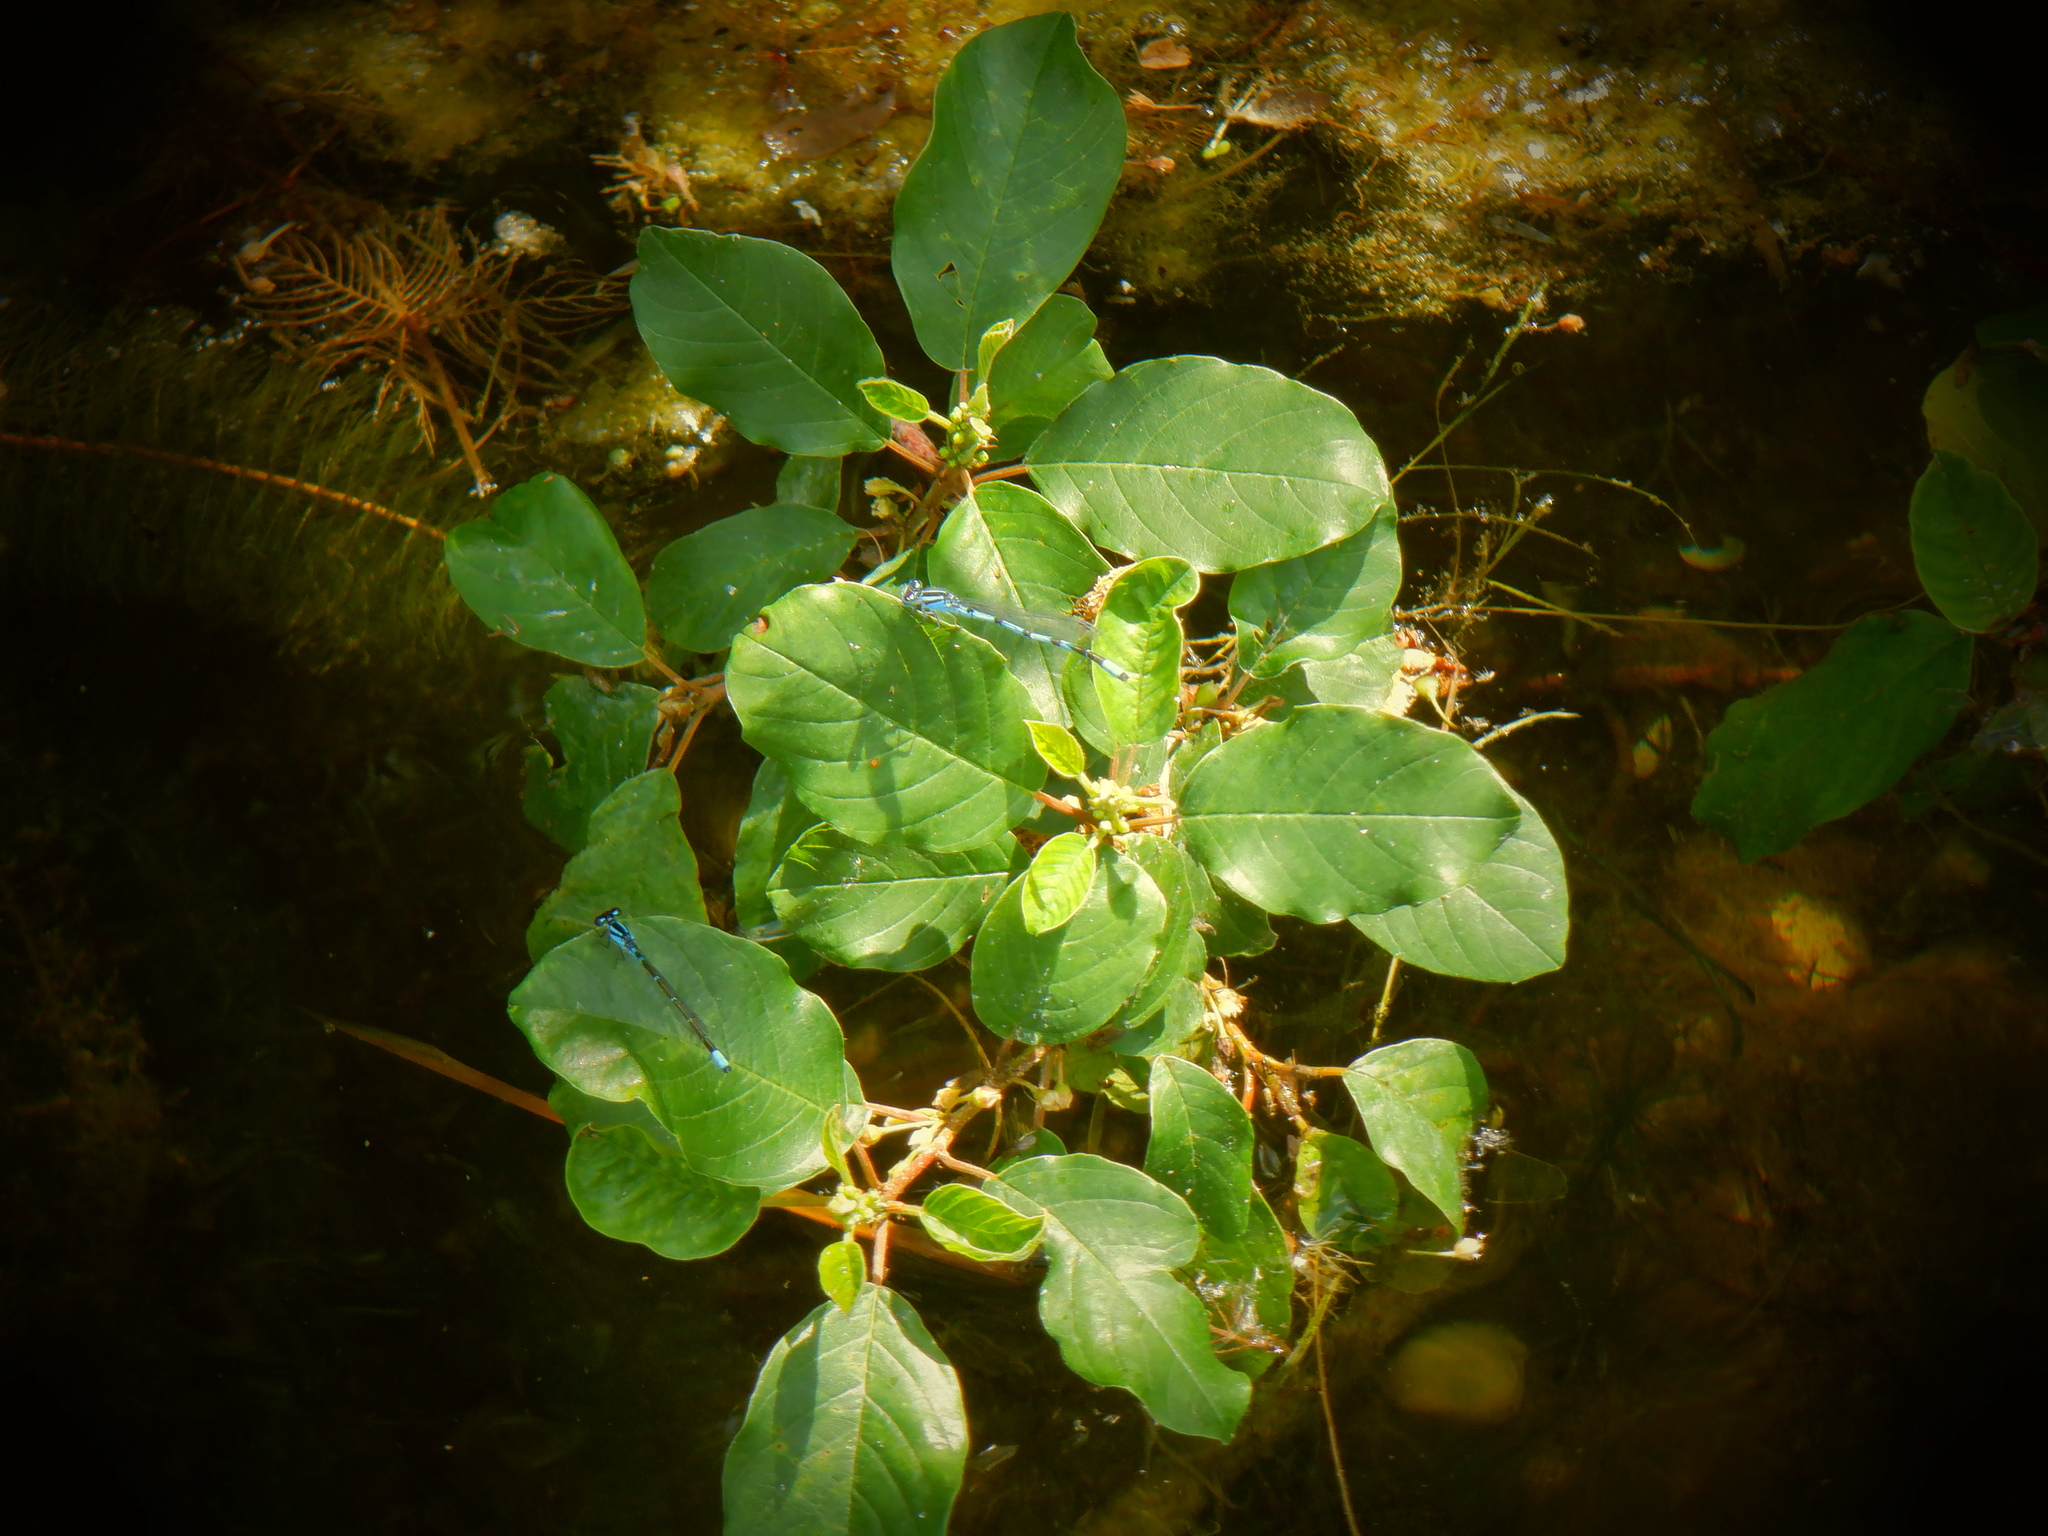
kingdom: Plantae
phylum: Tracheophyta
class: Magnoliopsida
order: Rosales
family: Rhamnaceae
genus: Frangula
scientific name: Frangula alnus
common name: Alder buckthorn
